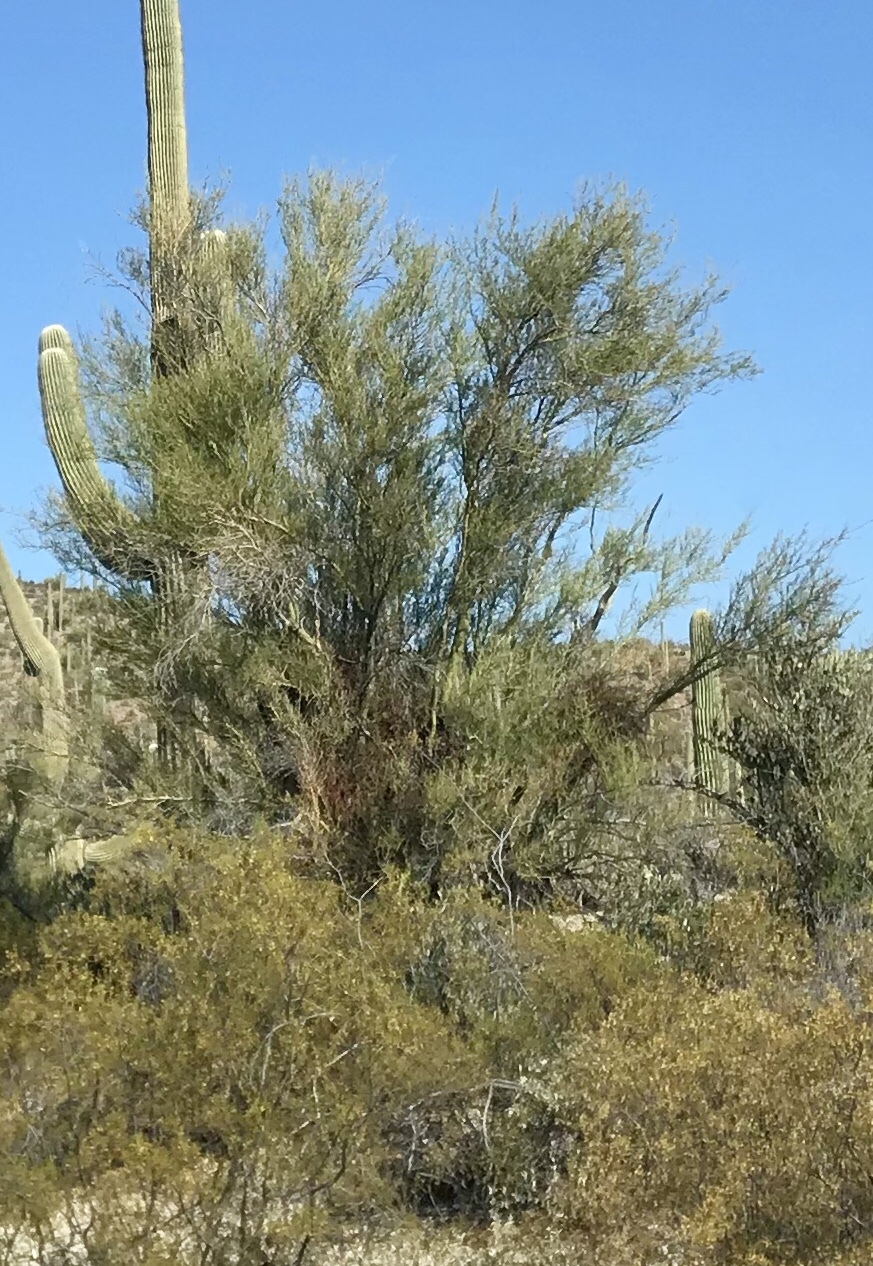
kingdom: Plantae
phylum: Tracheophyta
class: Magnoliopsida
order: Fabales
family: Fabaceae
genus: Parkinsonia
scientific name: Parkinsonia microphylla
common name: Yellow paloverde
